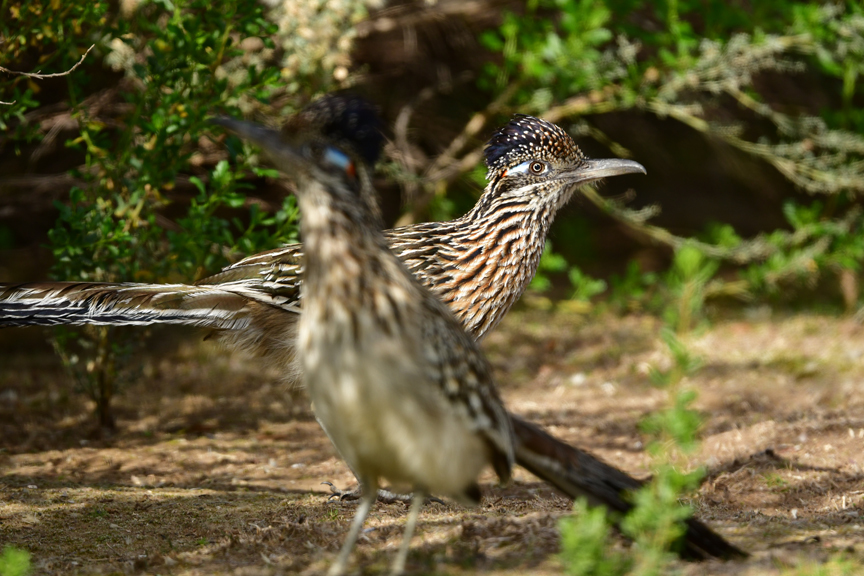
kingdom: Animalia
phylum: Chordata
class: Aves
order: Cuculiformes
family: Cuculidae
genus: Geococcyx
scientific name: Geococcyx californianus
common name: Greater roadrunner
